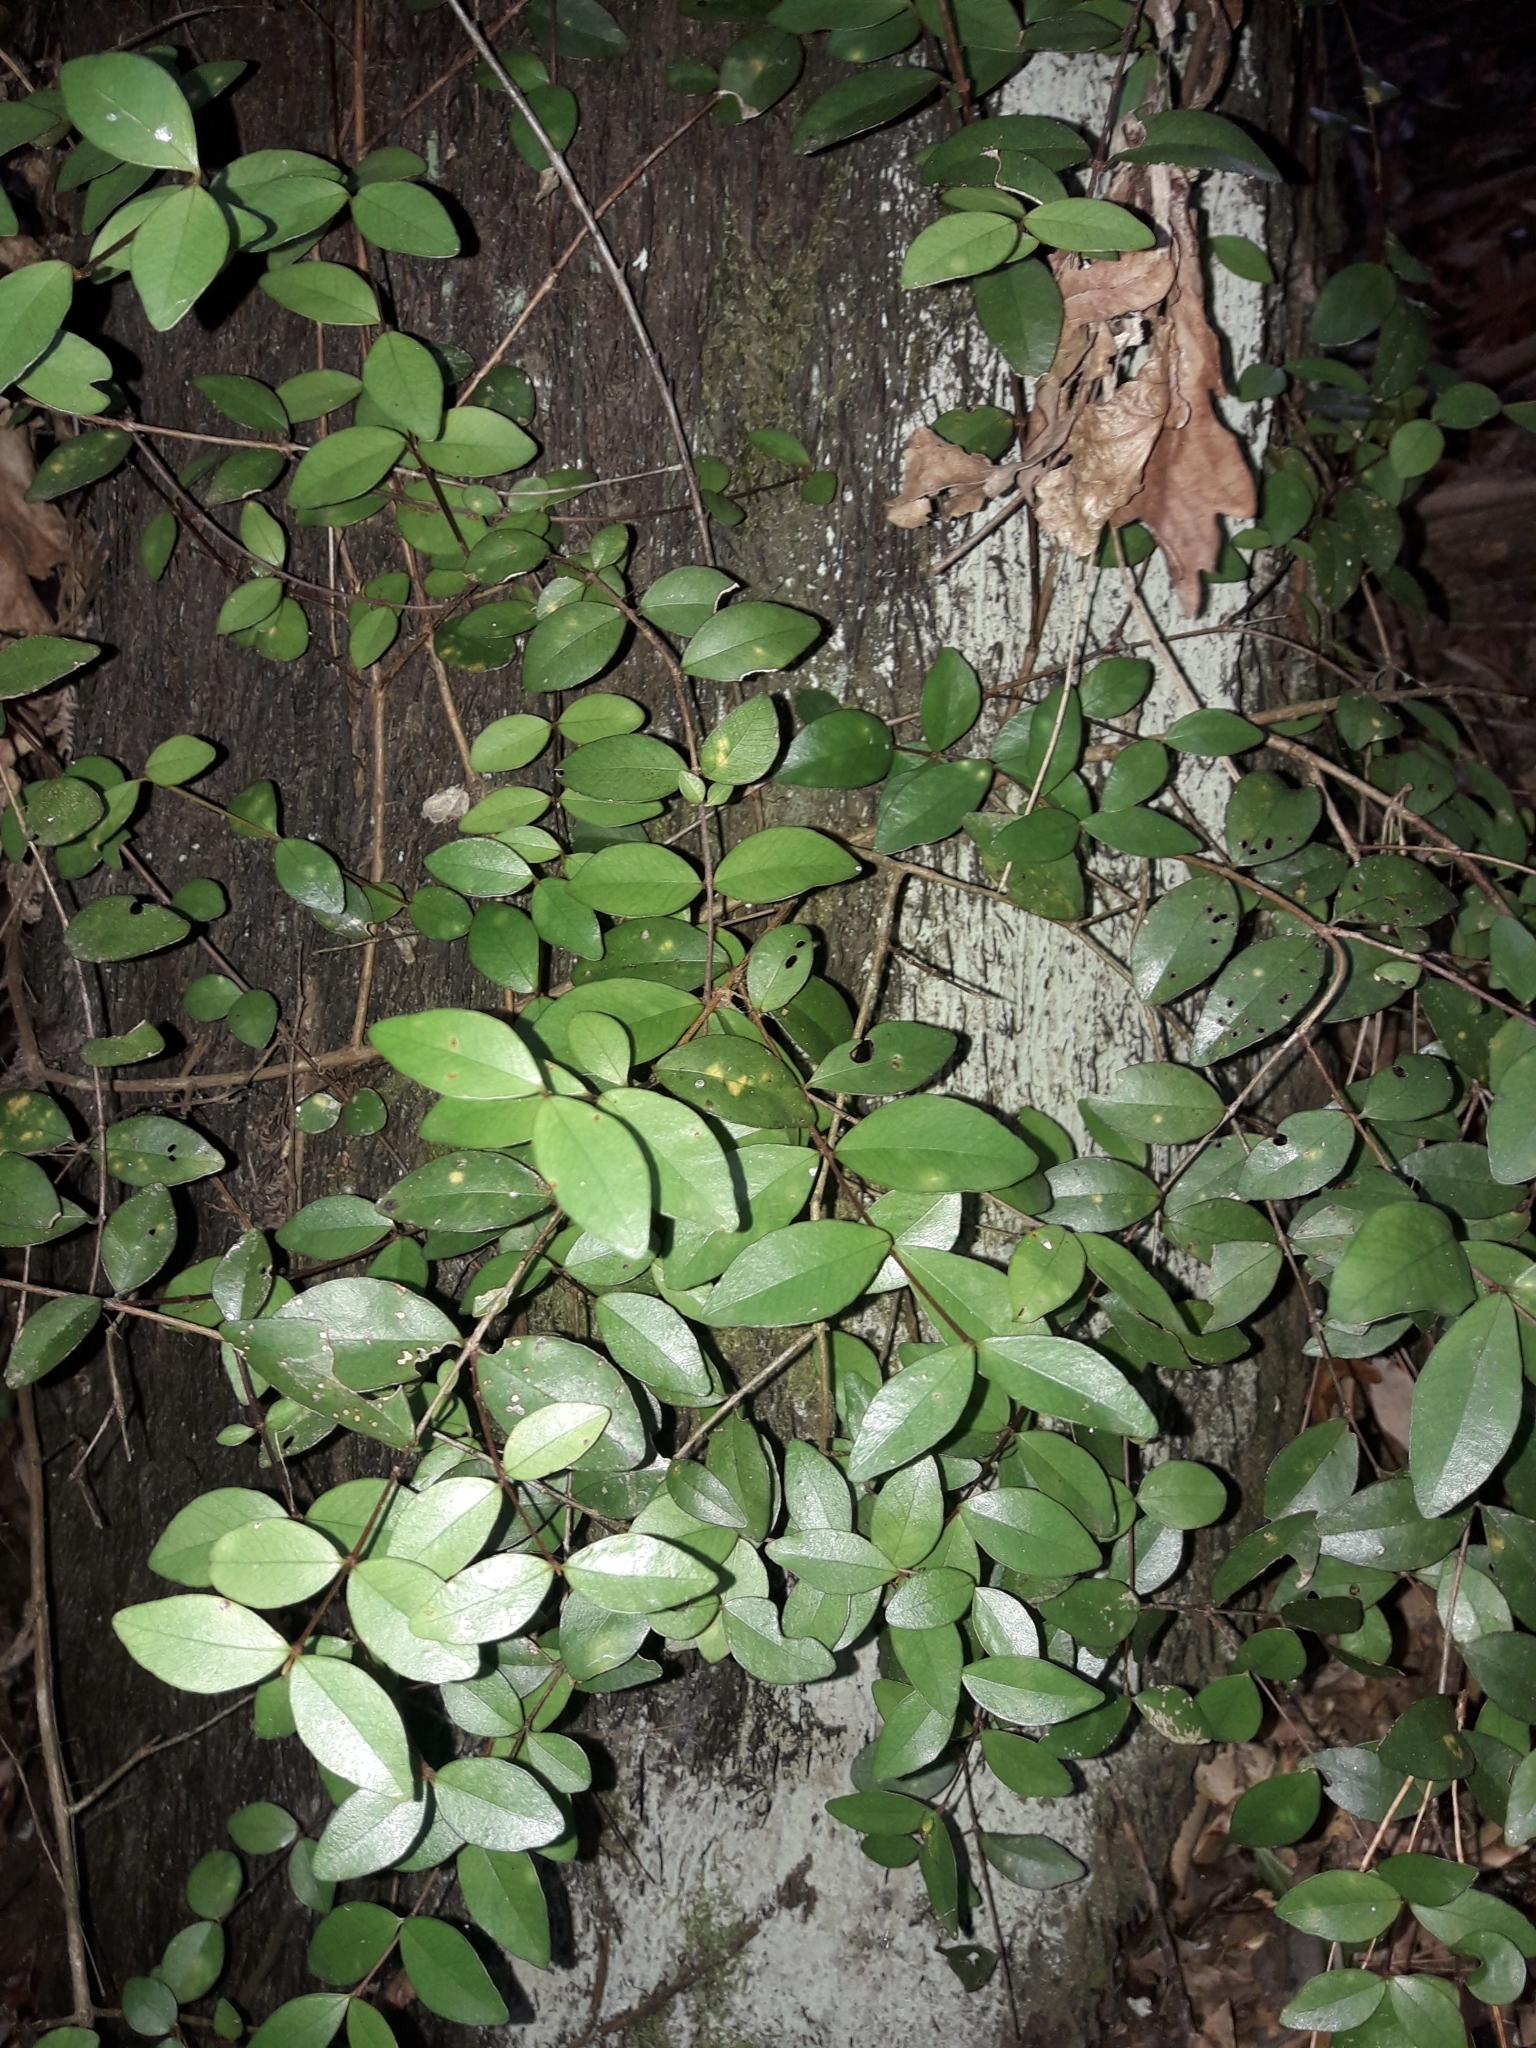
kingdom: Plantae
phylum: Tracheophyta
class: Magnoliopsida
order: Myrtales
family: Myrtaceae
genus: Metrosideros
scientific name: Metrosideros fulgens
